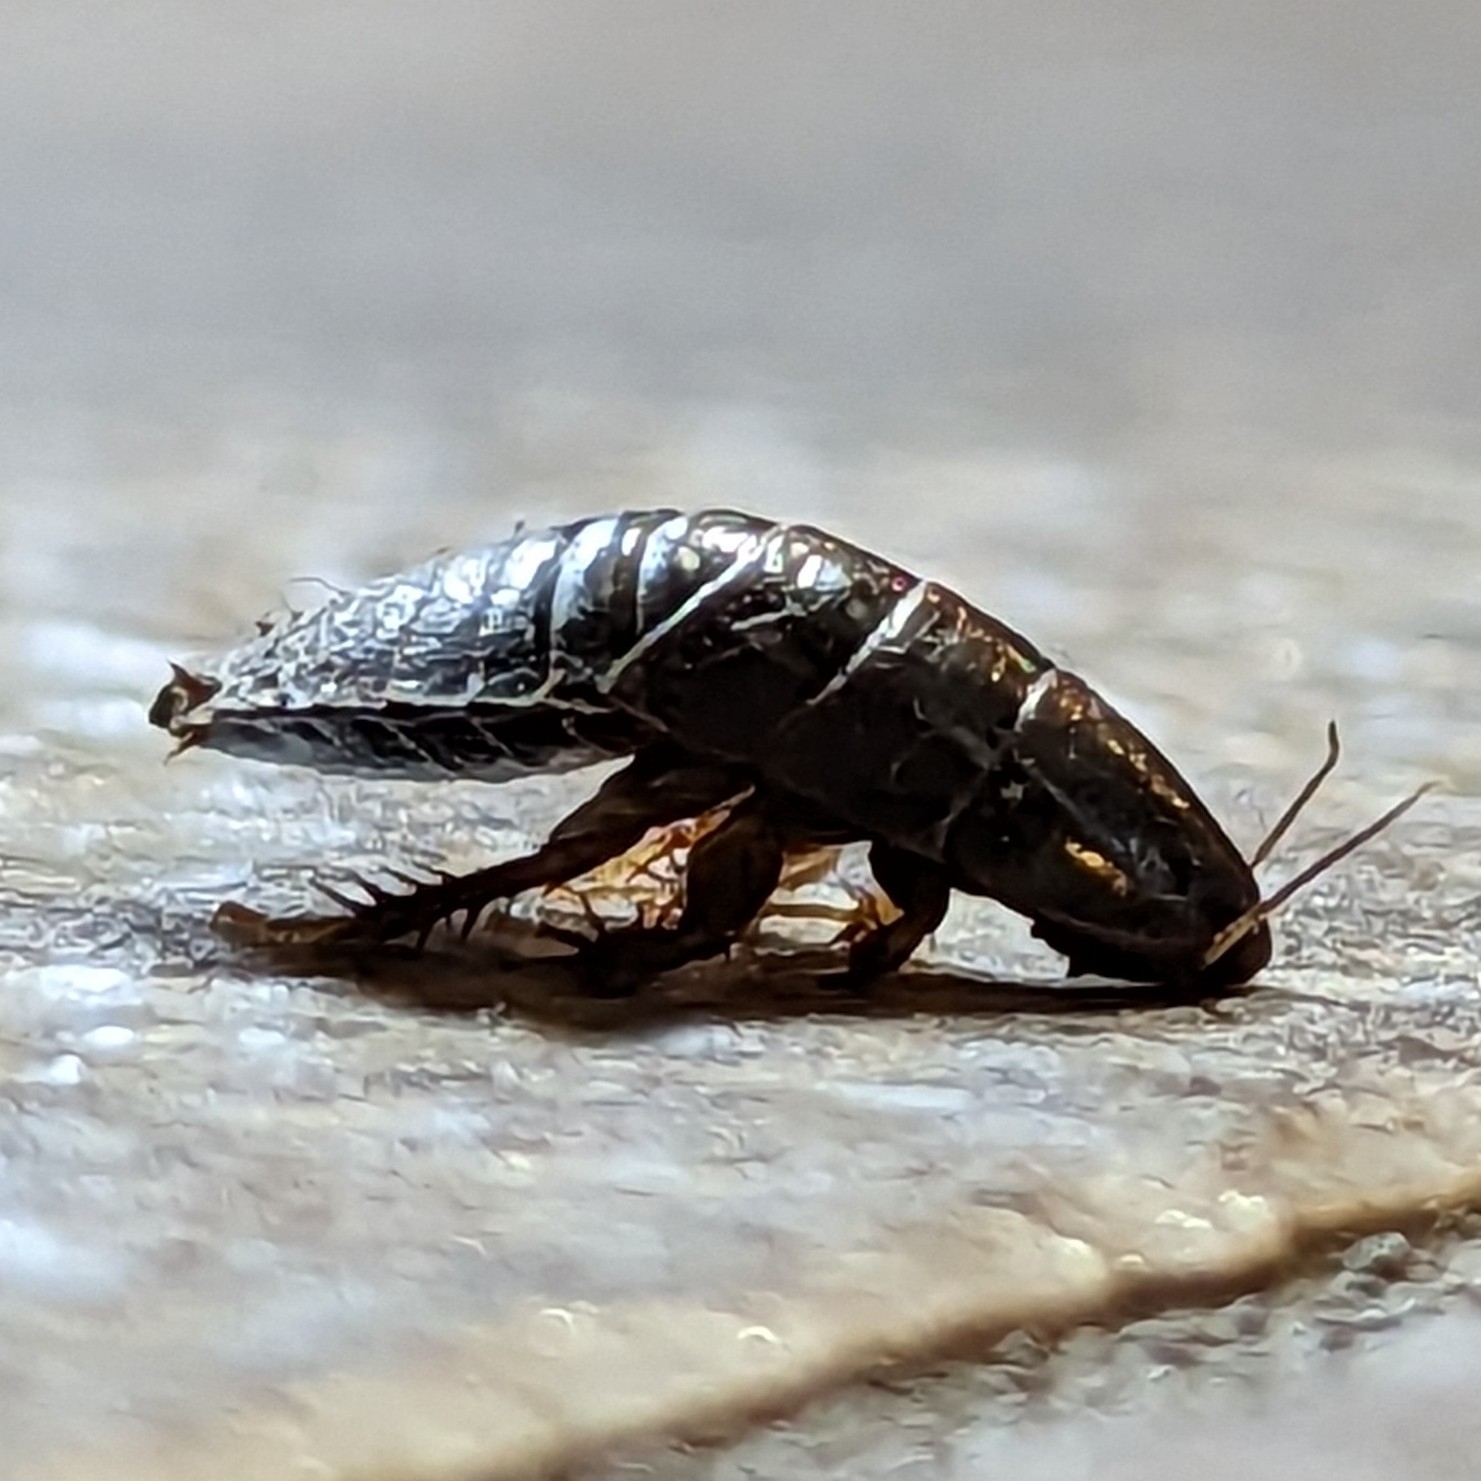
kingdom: Animalia
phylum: Arthropoda
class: Insecta
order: Blattodea
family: Blaberidae
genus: Pycnoscelus
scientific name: Pycnoscelus surinamensis
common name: Surinam cockroach
